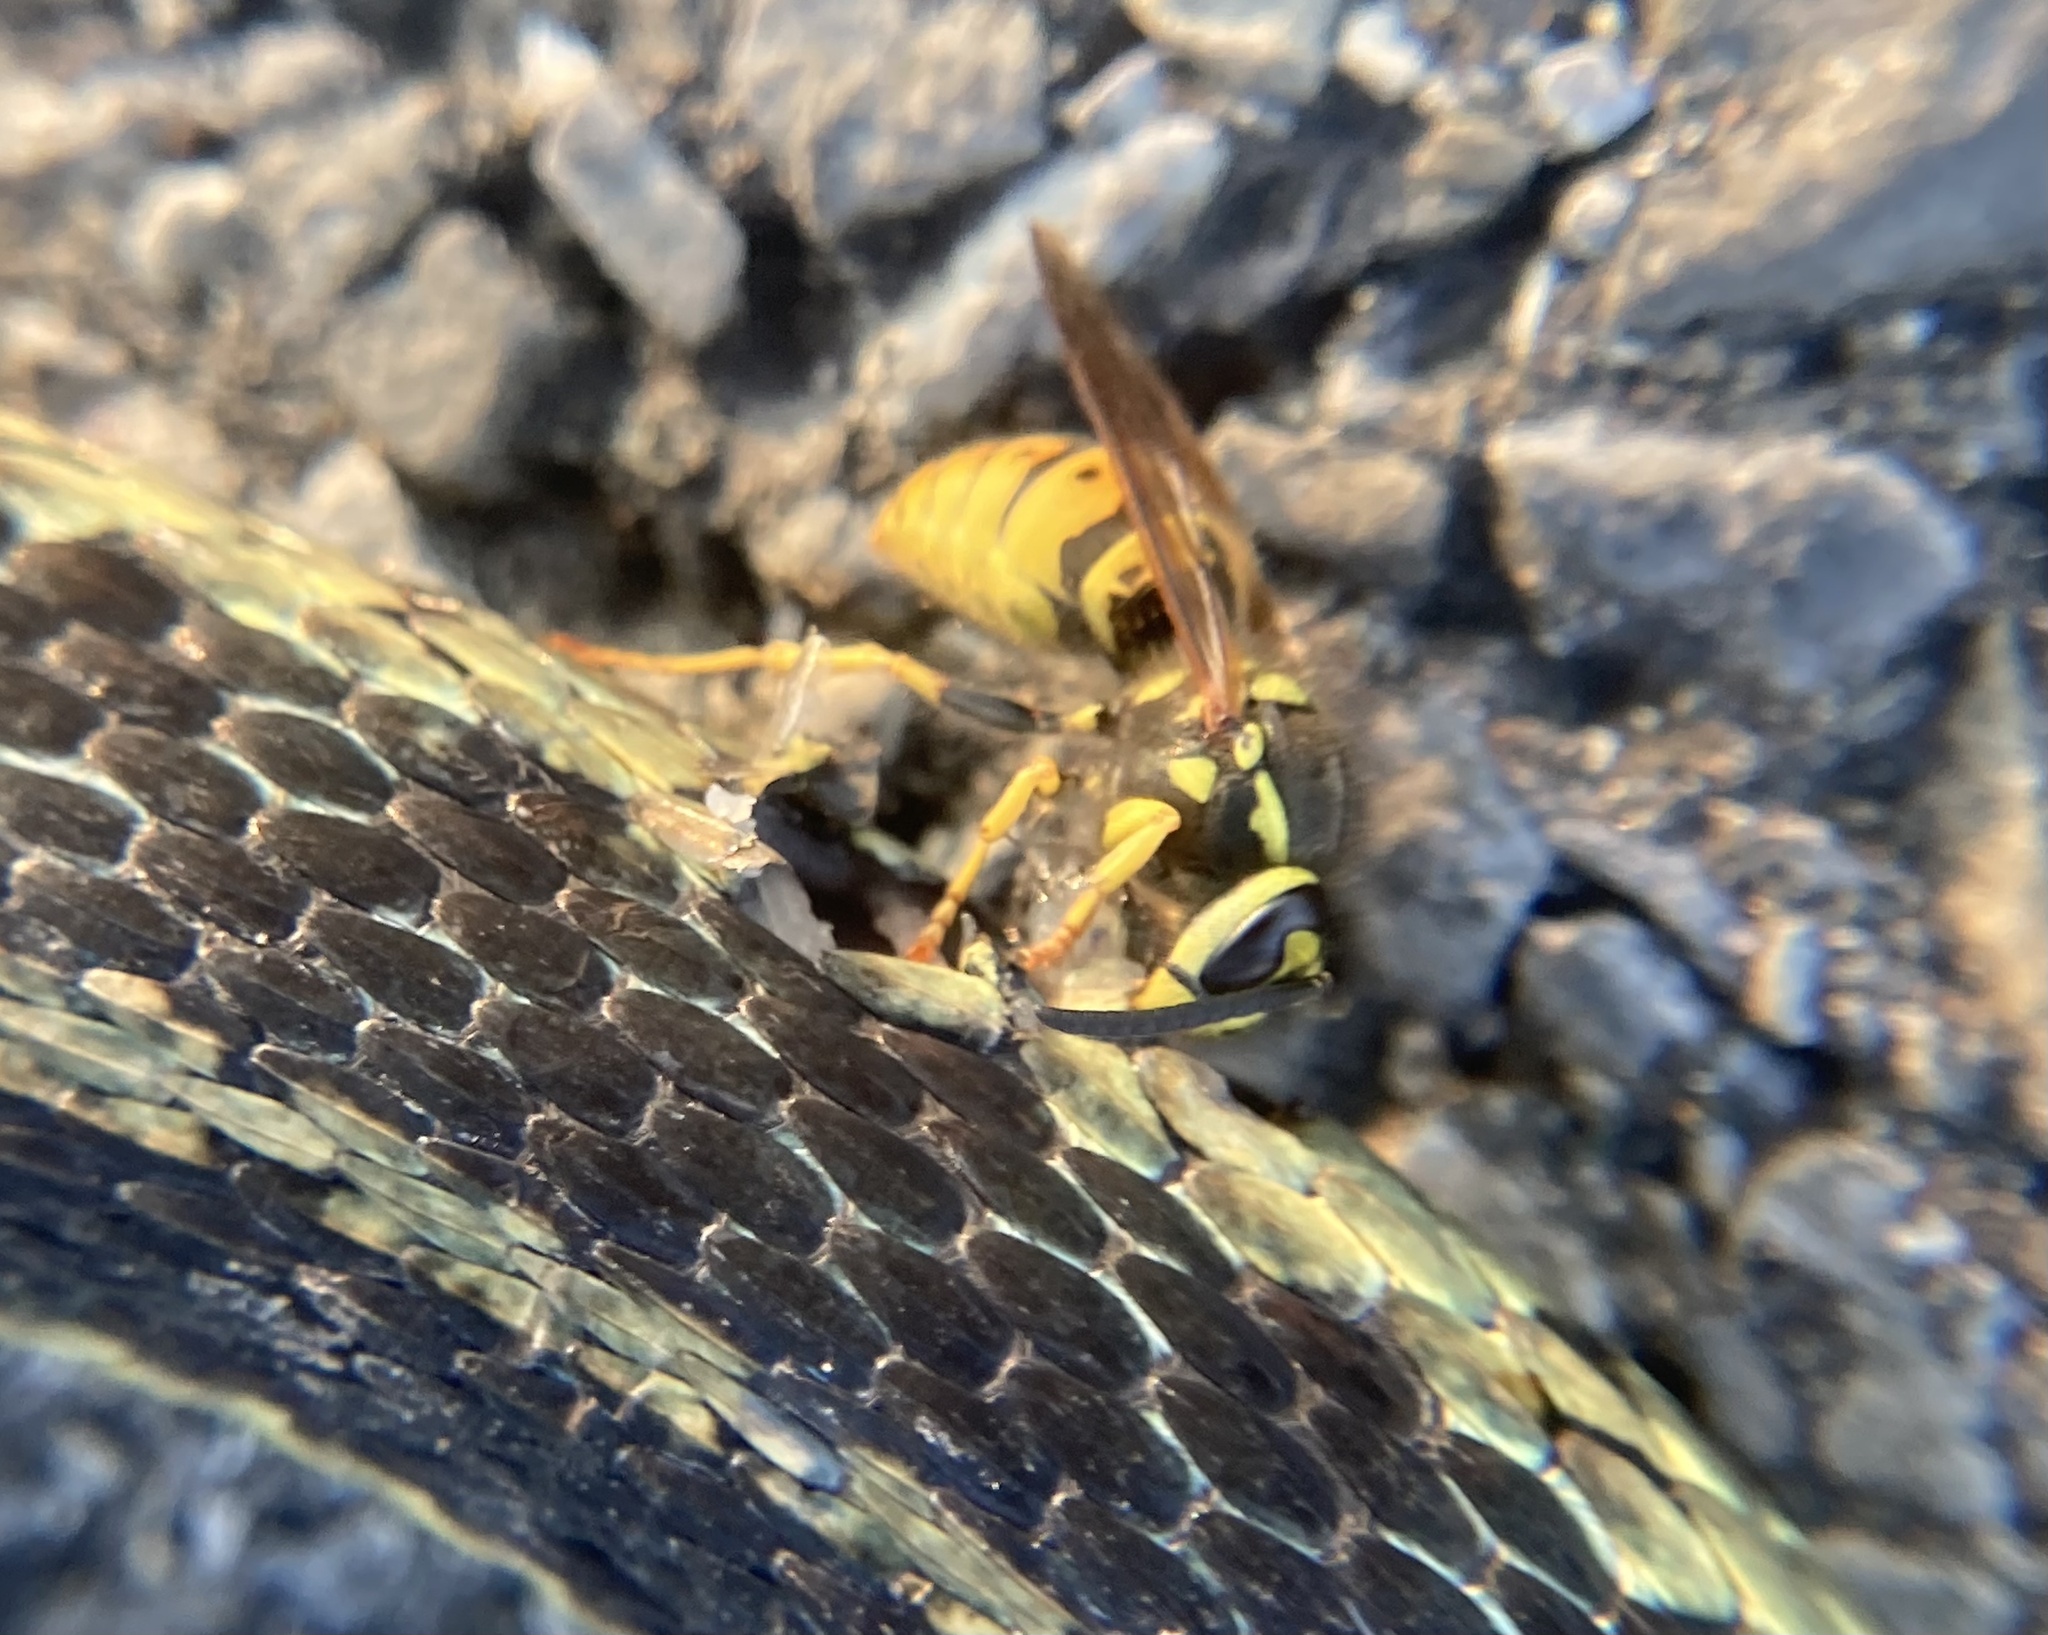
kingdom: Animalia
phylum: Arthropoda
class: Insecta
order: Hymenoptera
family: Vespidae
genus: Vespula
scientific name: Vespula germanica
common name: German wasp
